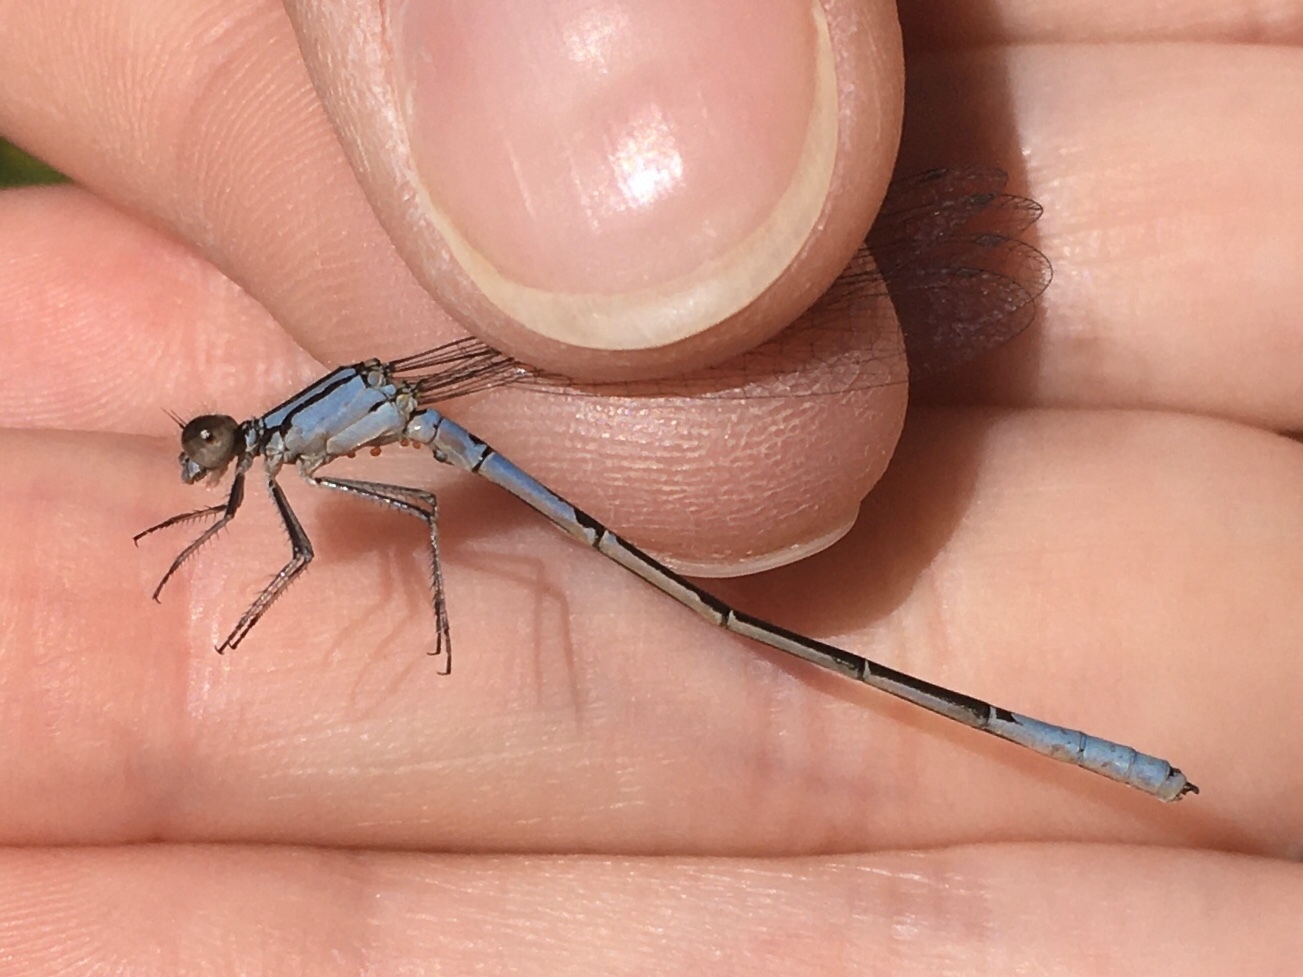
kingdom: Animalia
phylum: Arthropoda
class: Insecta
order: Odonata
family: Coenagrionidae
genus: Enallagma
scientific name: Enallagma aspersum
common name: Azure bluet
